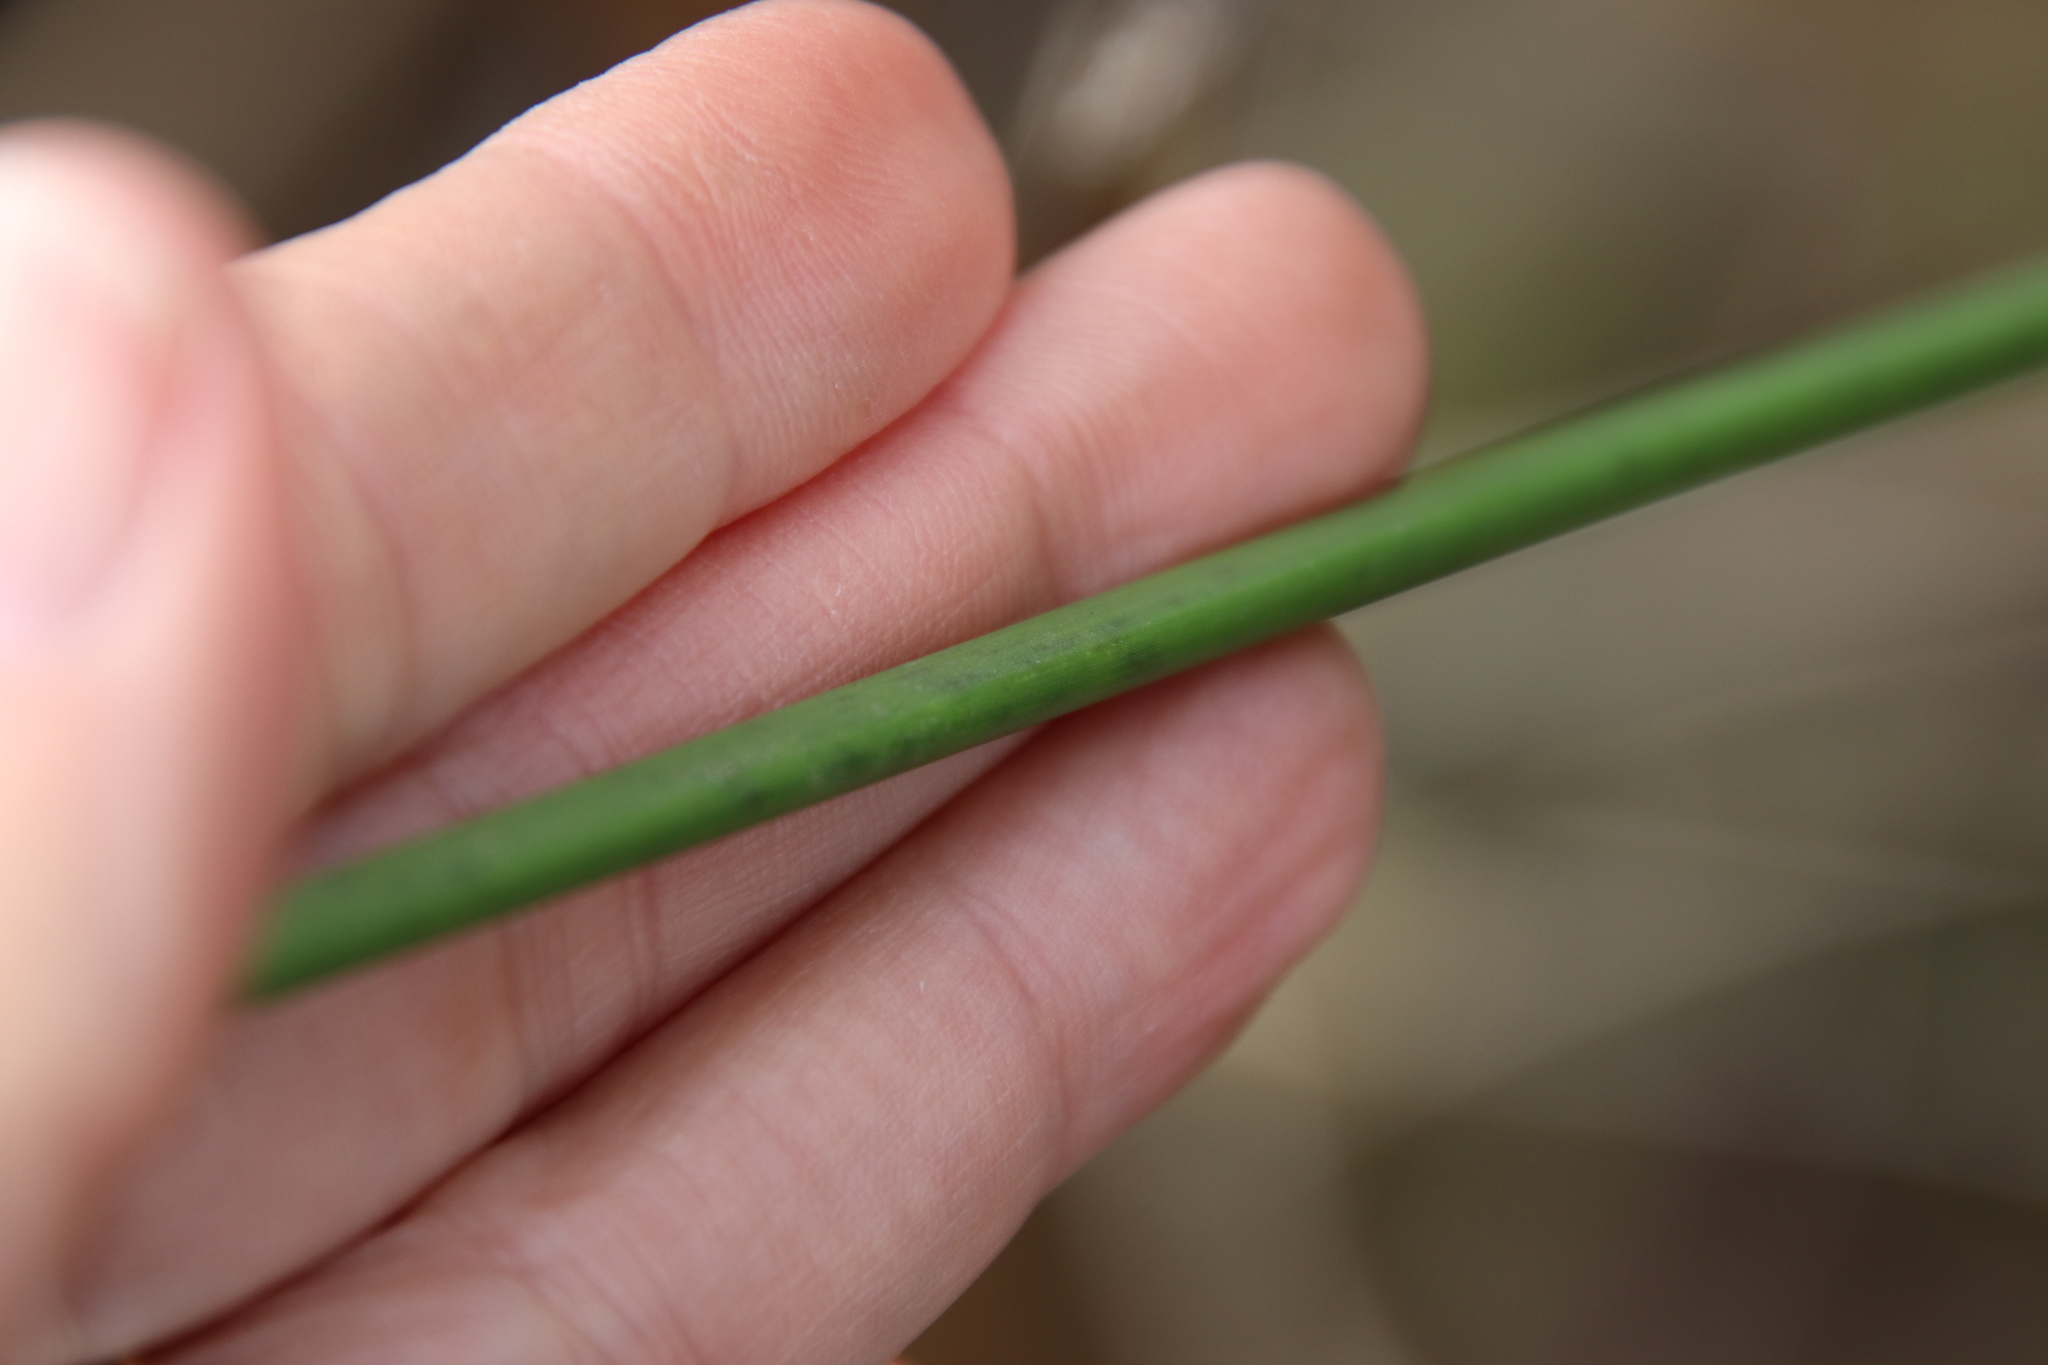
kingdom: Plantae
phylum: Tracheophyta
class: Liliopsida
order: Poales
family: Cyperaceae
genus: Schoenoplectus
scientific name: Schoenoplectus californicus
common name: California bulrush
